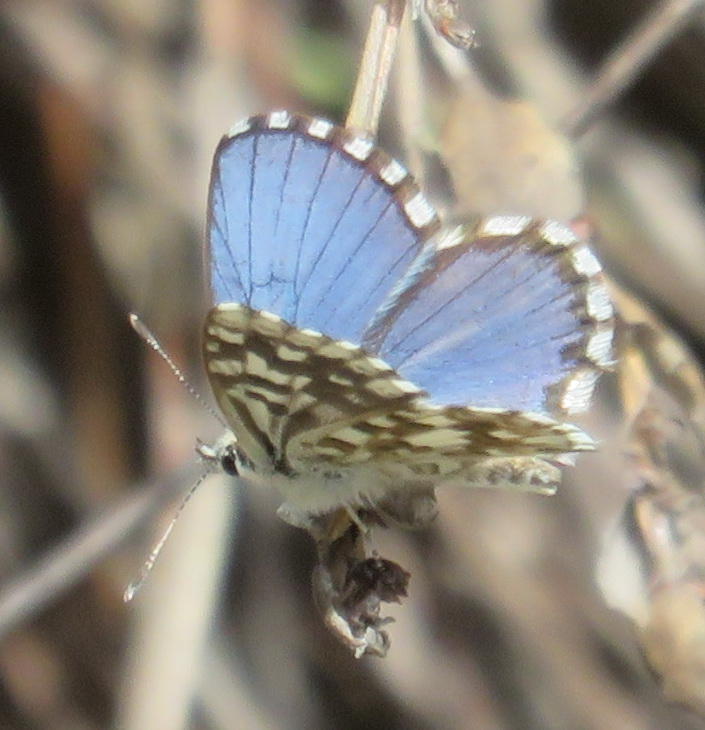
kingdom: Animalia
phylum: Arthropoda
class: Insecta
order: Lepidoptera
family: Lycaenidae
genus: Tarucus
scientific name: Tarucus thespis
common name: Vivid dotted blue
